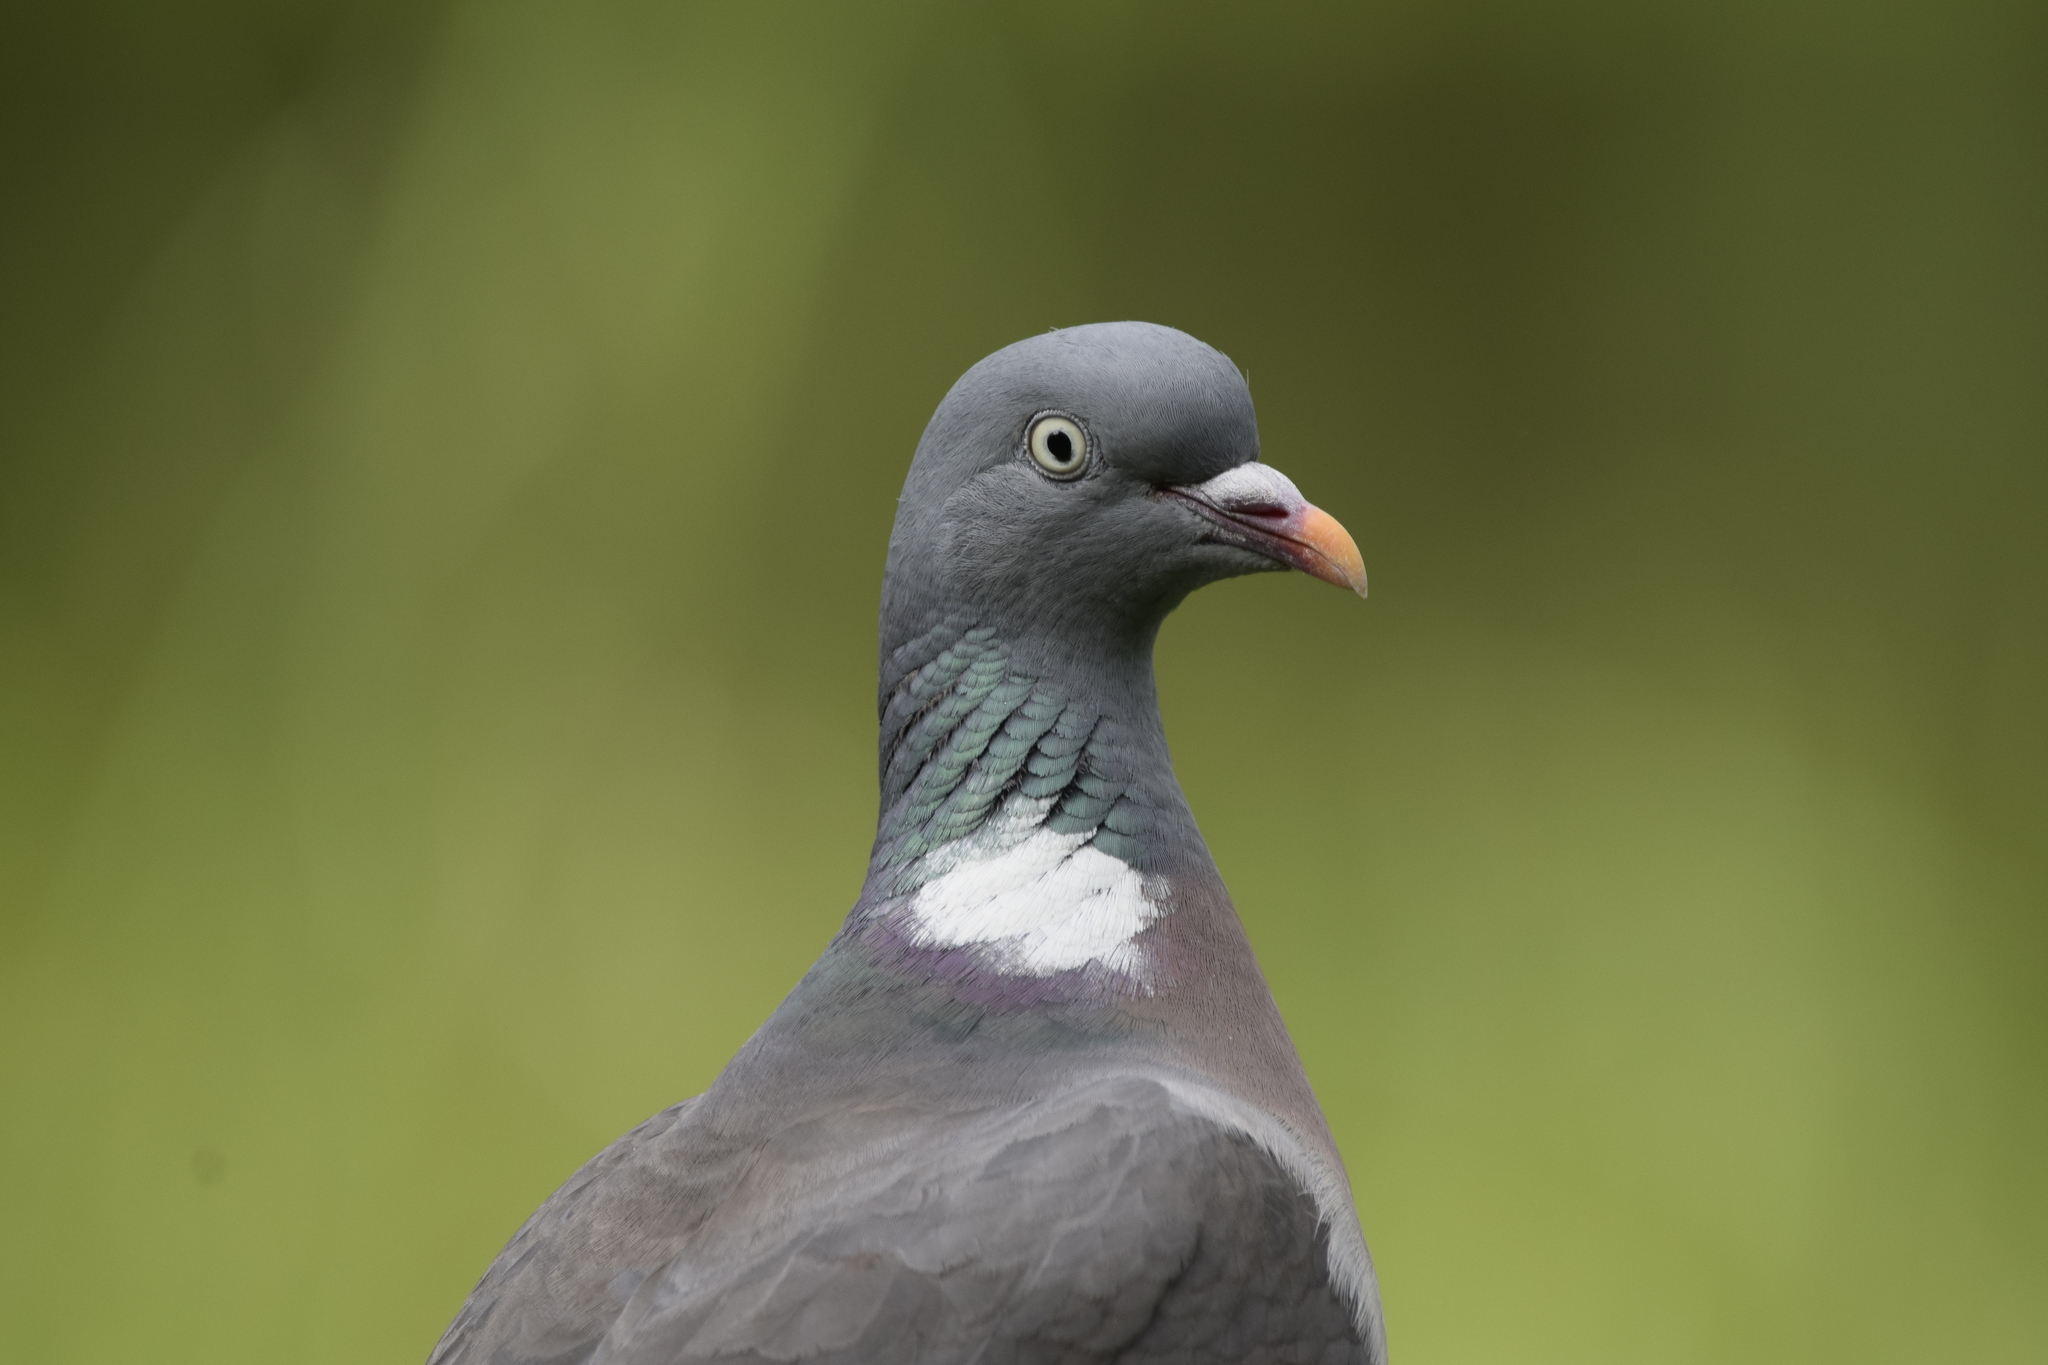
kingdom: Animalia
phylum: Chordata
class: Aves
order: Columbiformes
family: Columbidae
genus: Columba
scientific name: Columba palumbus
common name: Common wood pigeon
